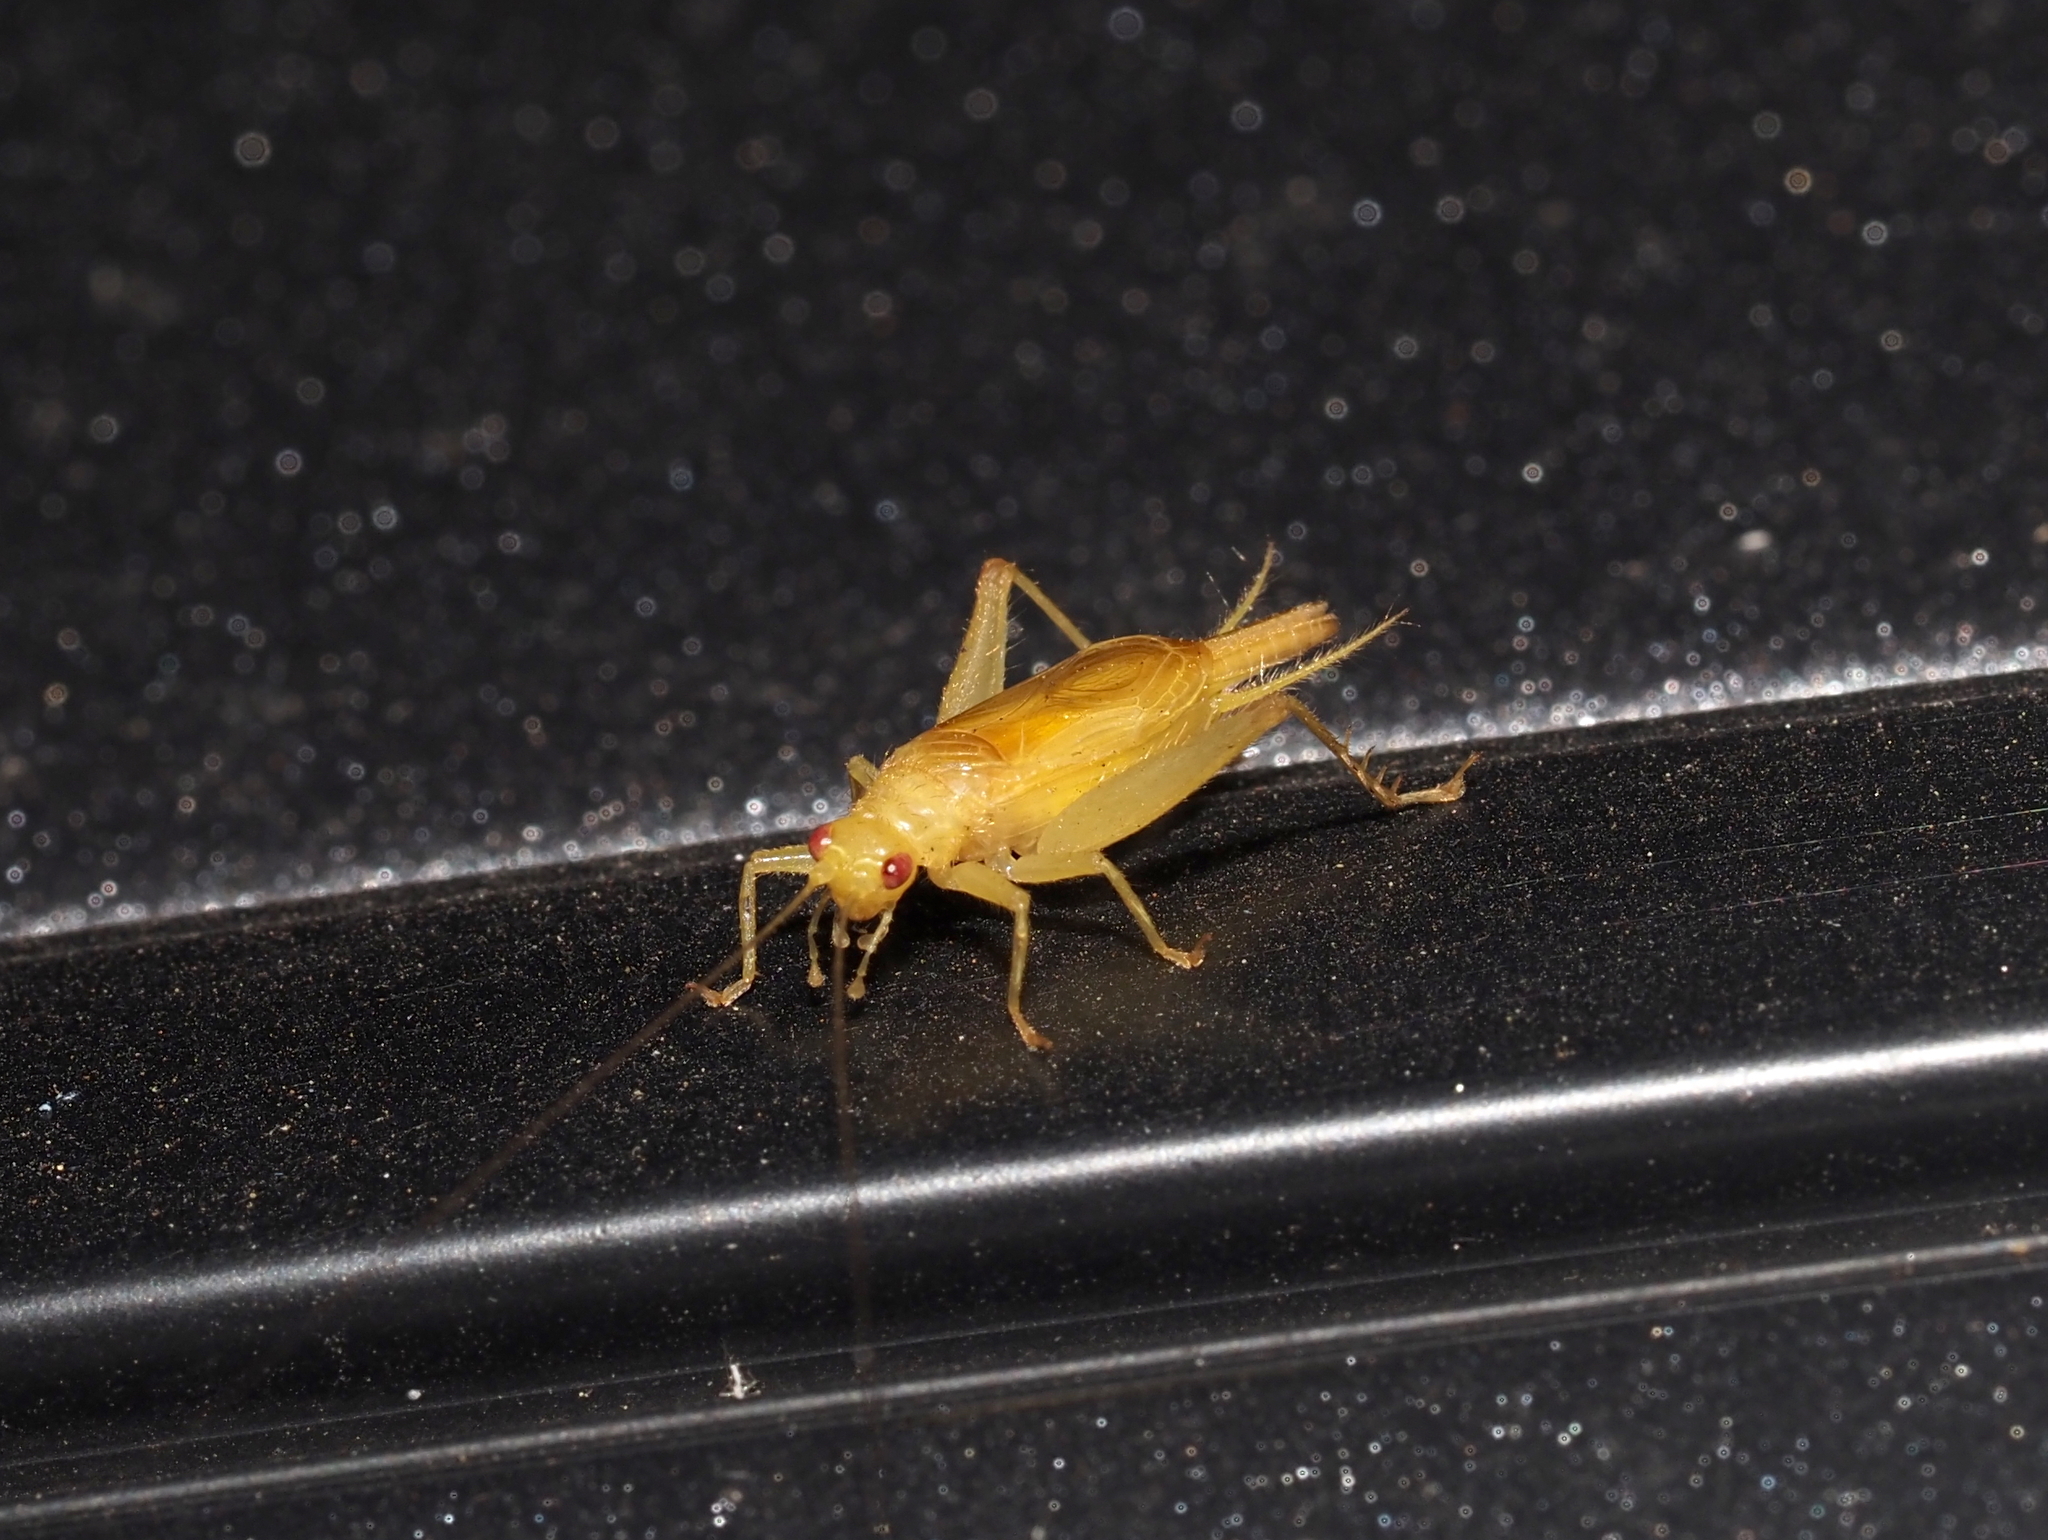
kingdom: Animalia
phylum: Arthropoda
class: Insecta
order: Orthoptera
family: Trigonidiidae
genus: Cyrtoxipha
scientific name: Cyrtoxipha columbiana
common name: Columbian trig
